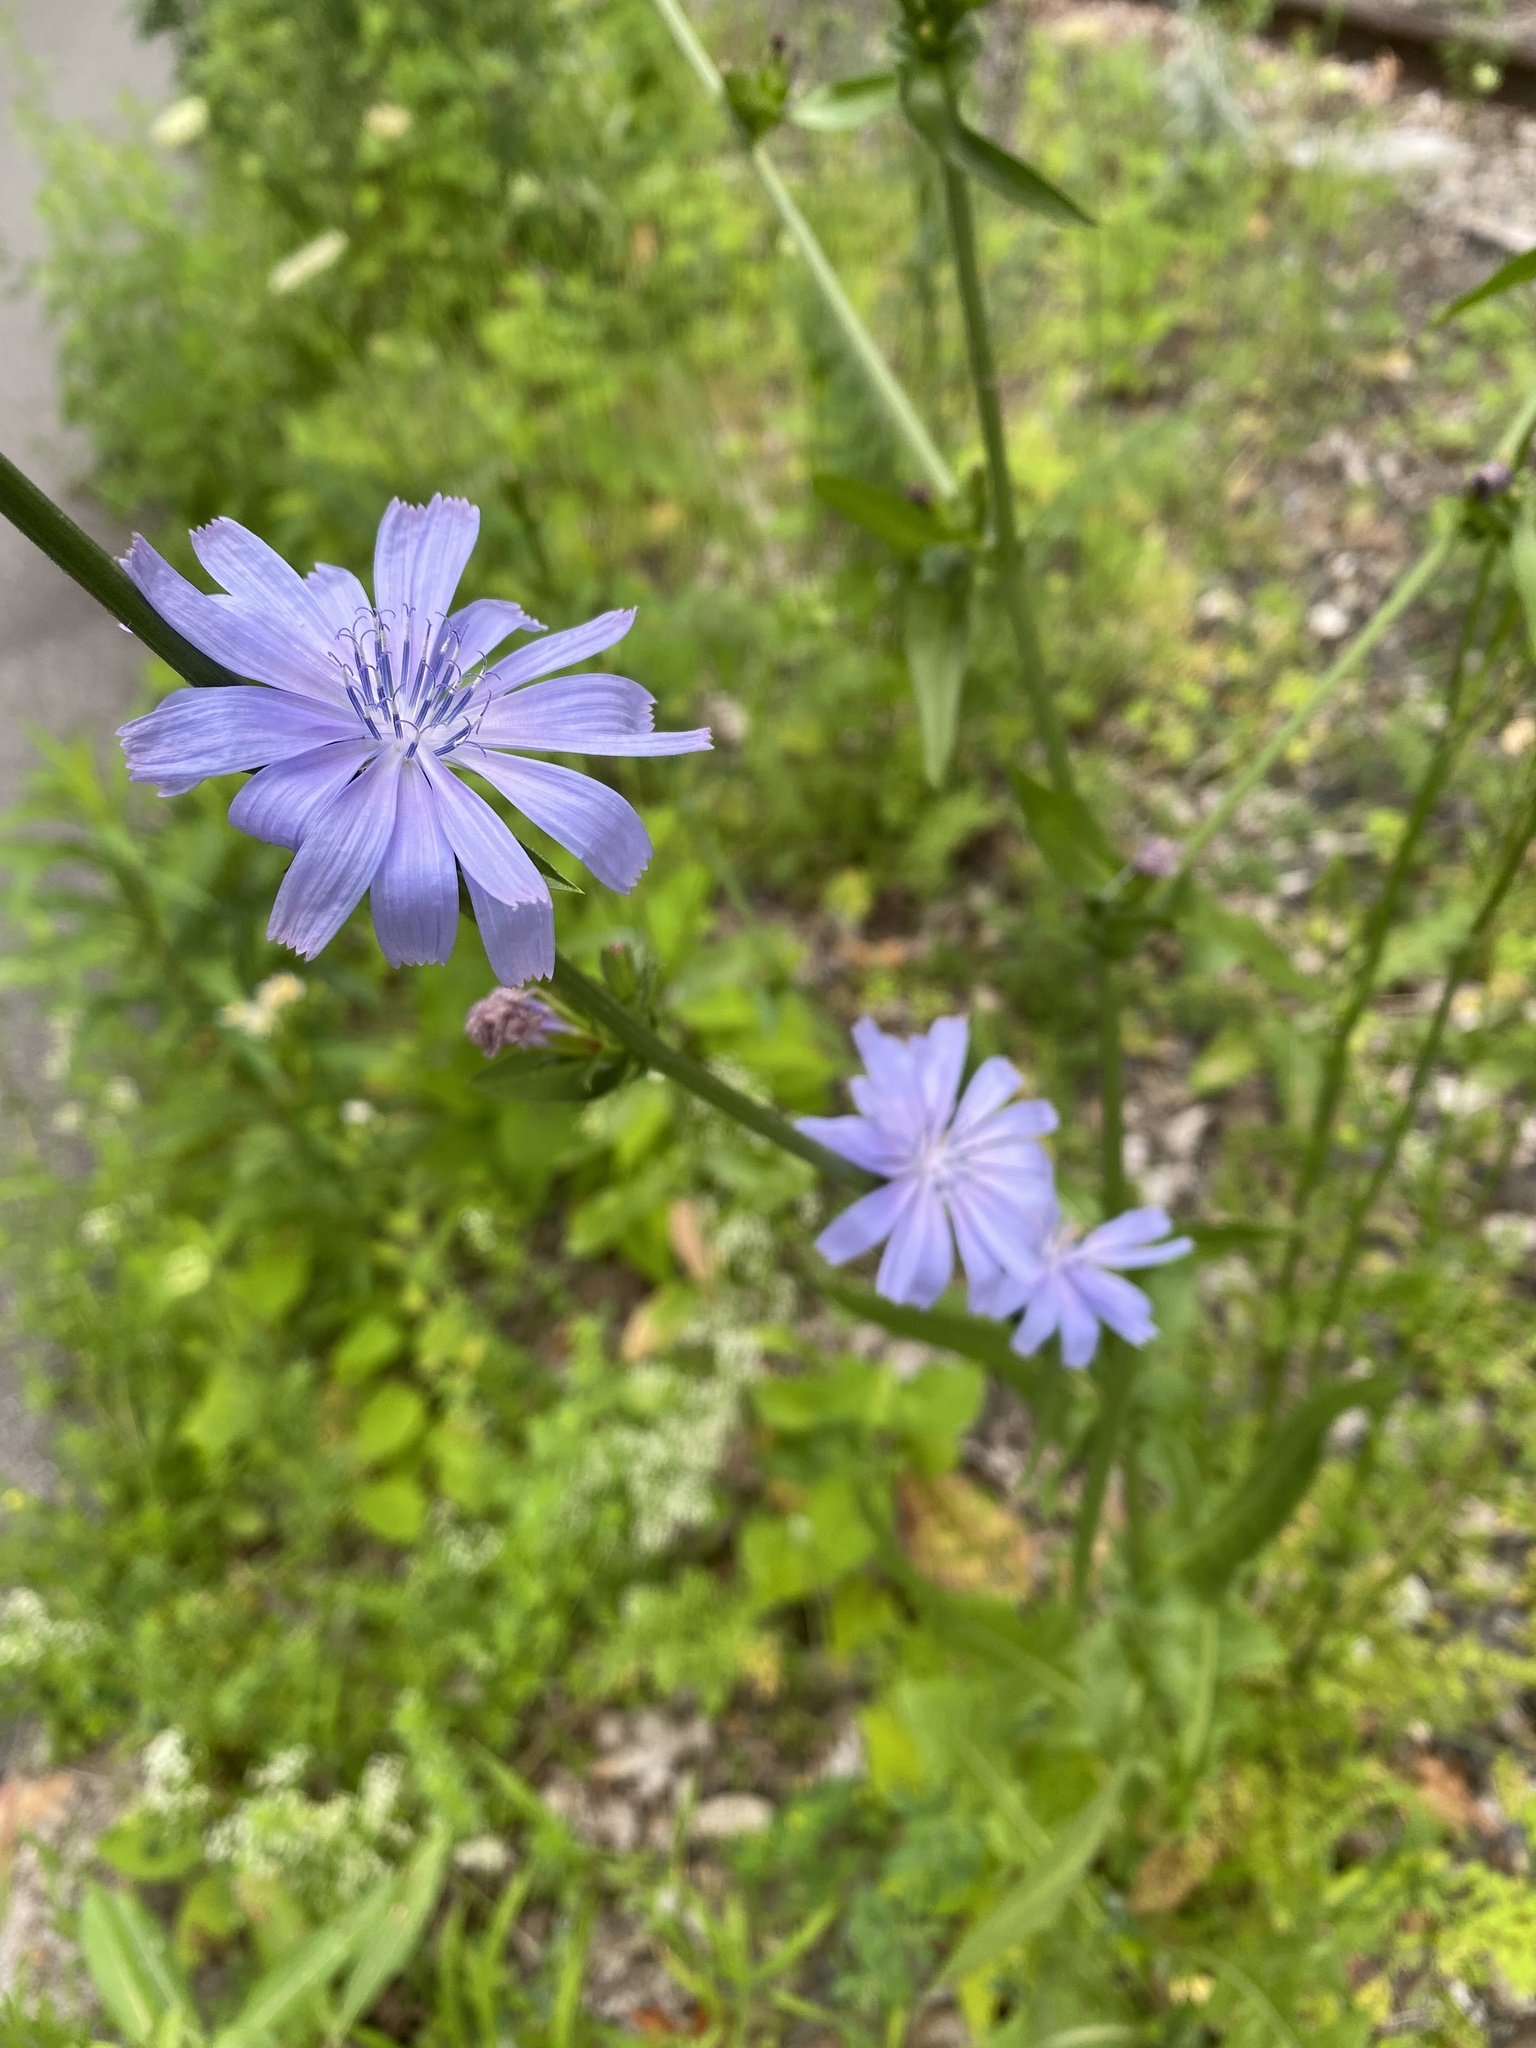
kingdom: Plantae
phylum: Tracheophyta
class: Magnoliopsida
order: Asterales
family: Asteraceae
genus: Cichorium
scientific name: Cichorium intybus
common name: Chicory
